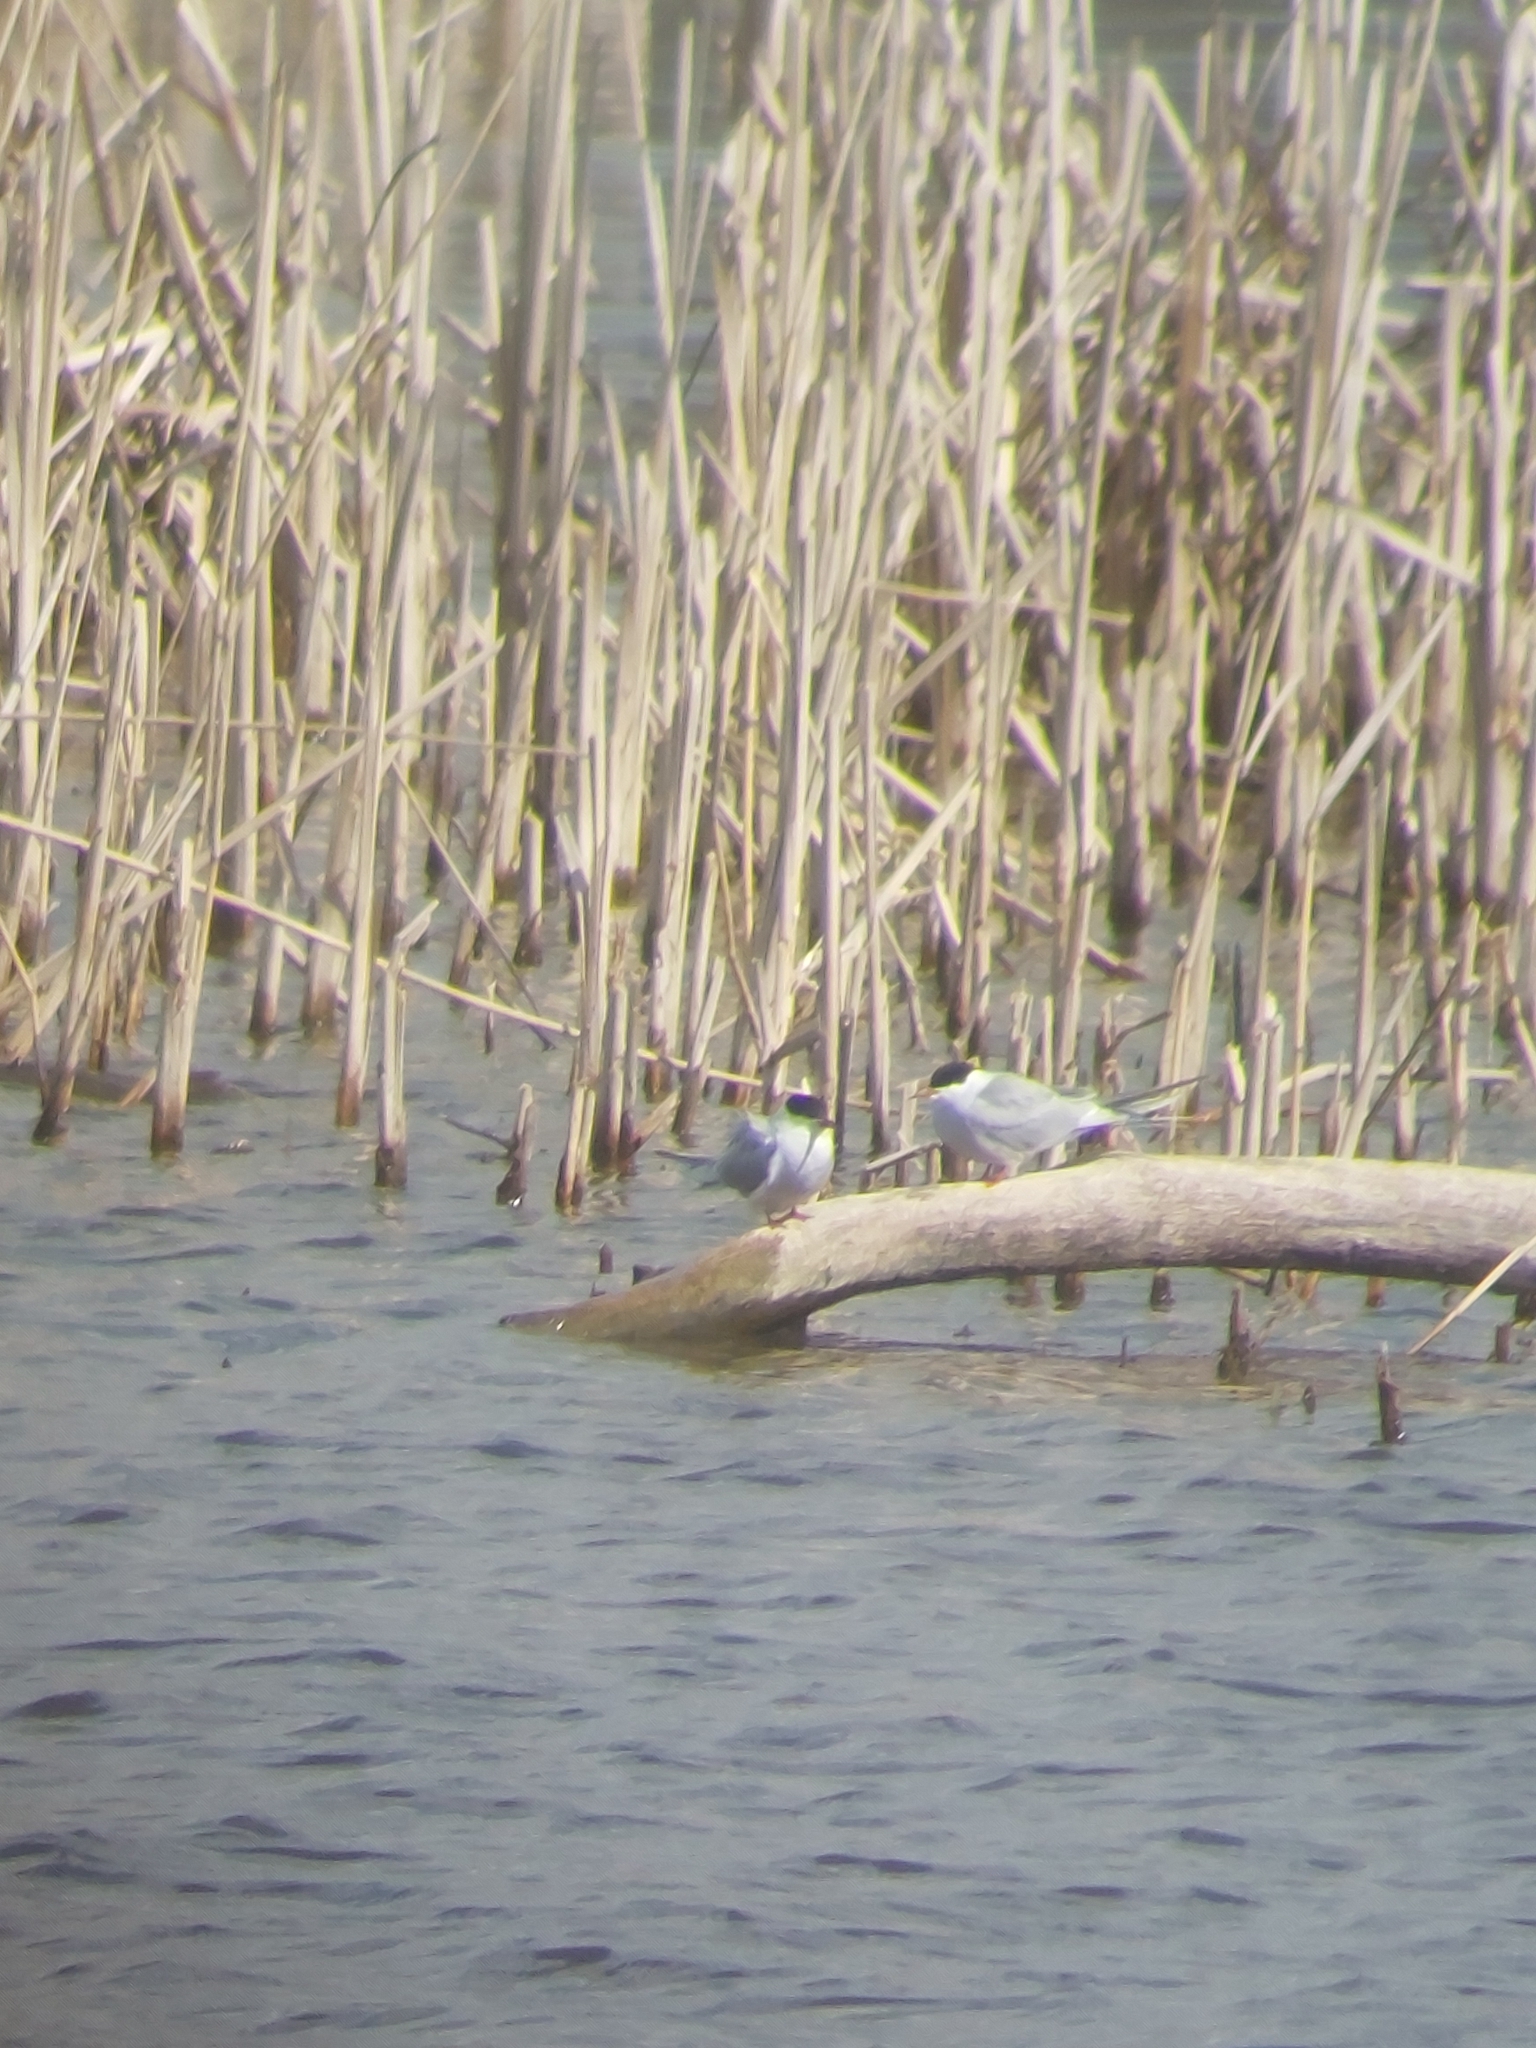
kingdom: Animalia
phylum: Chordata
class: Aves
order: Charadriiformes
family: Laridae
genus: Sterna
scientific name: Sterna hirundo
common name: Common tern
